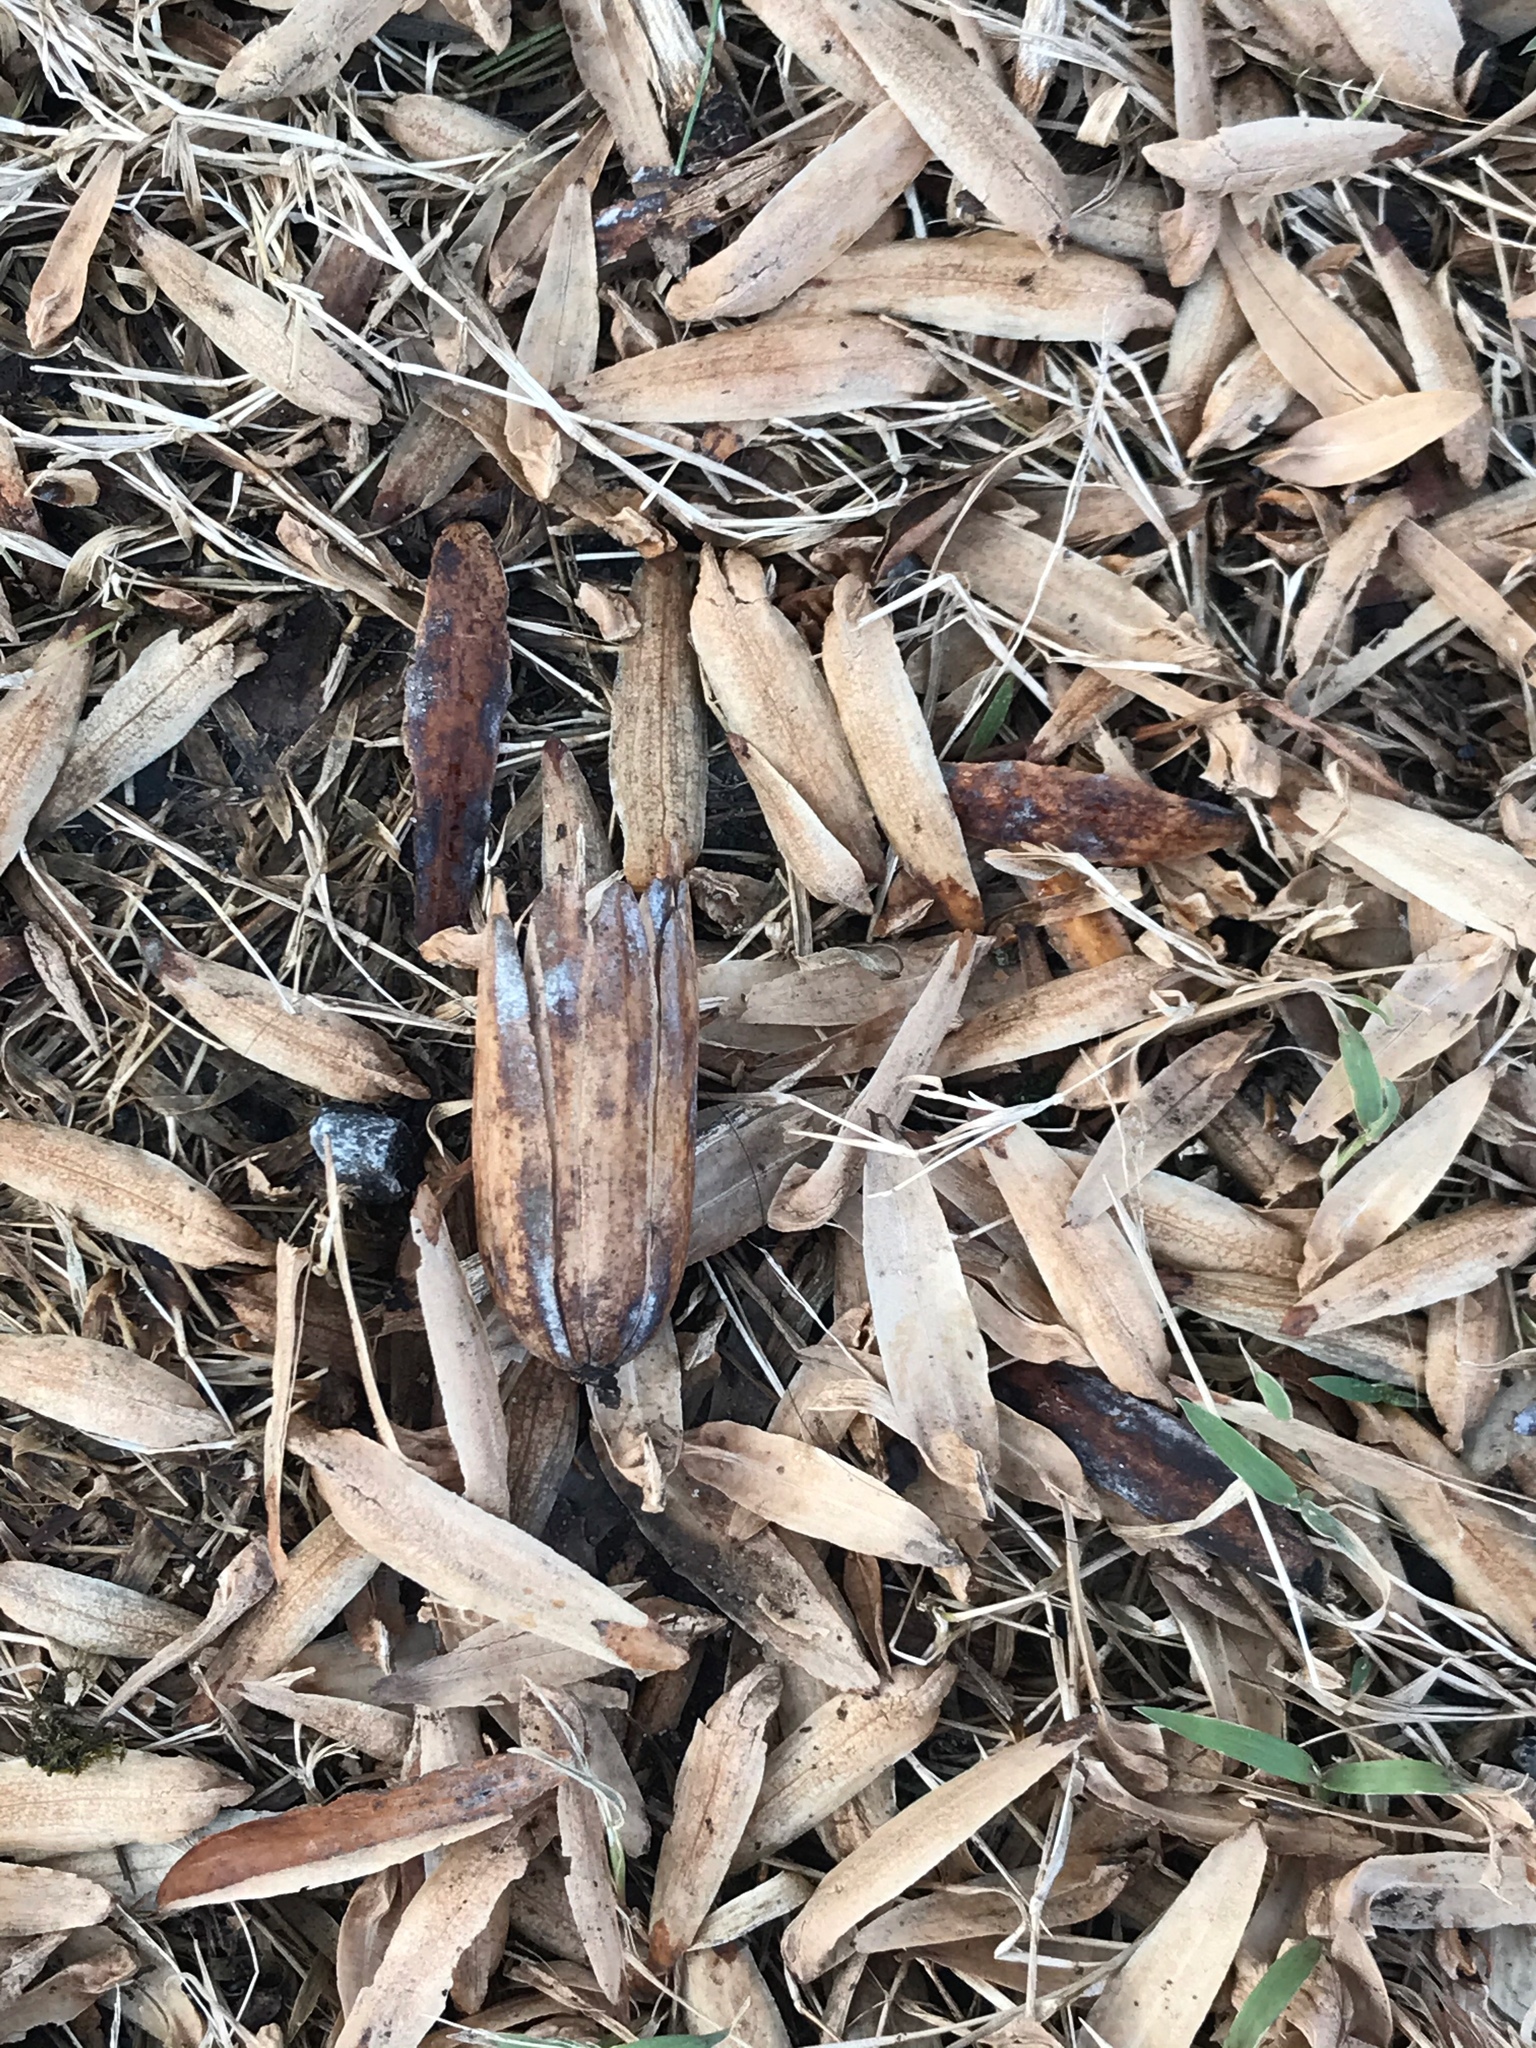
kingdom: Plantae
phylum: Tracheophyta
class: Magnoliopsida
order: Magnoliales
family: Magnoliaceae
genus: Liriodendron
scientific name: Liriodendron tulipifera
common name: Tulip tree
